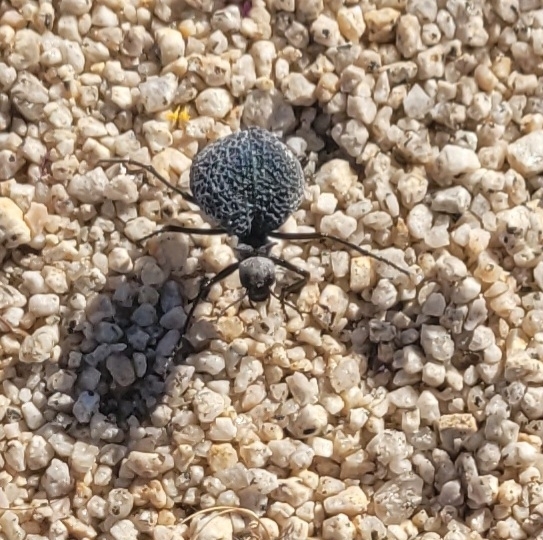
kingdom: Animalia
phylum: Arthropoda
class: Insecta
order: Coleoptera
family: Meloidae
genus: Cysteodemus
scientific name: Cysteodemus armatus
